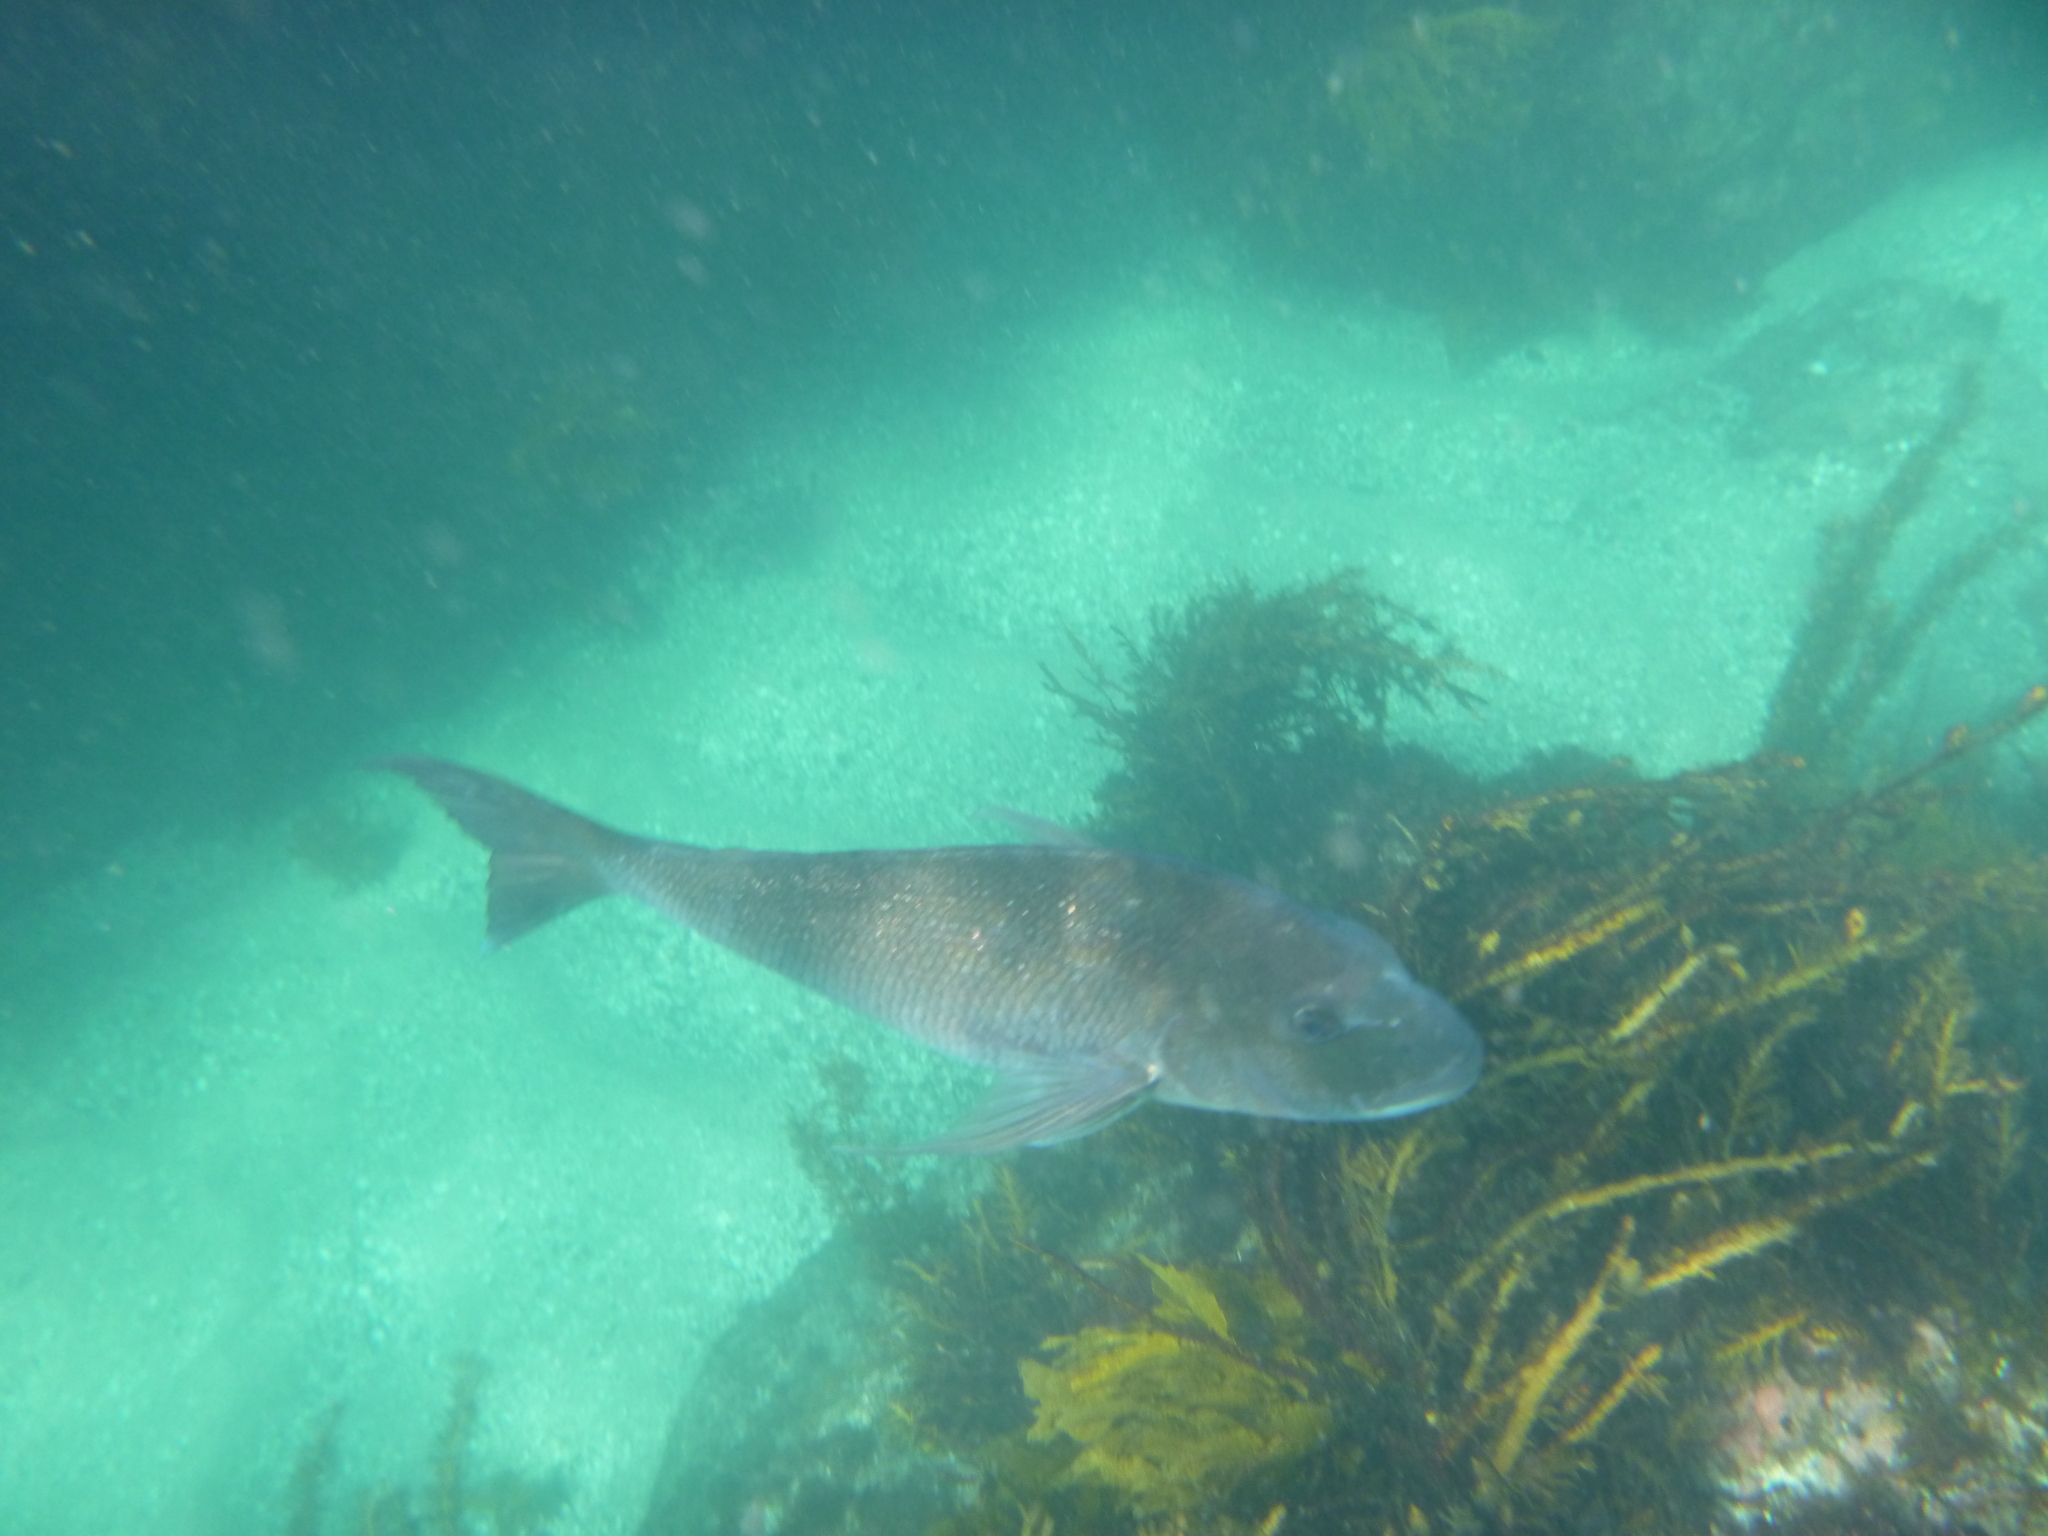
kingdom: Animalia
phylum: Chordata
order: Perciformes
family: Sparidae
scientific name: Sparidae
